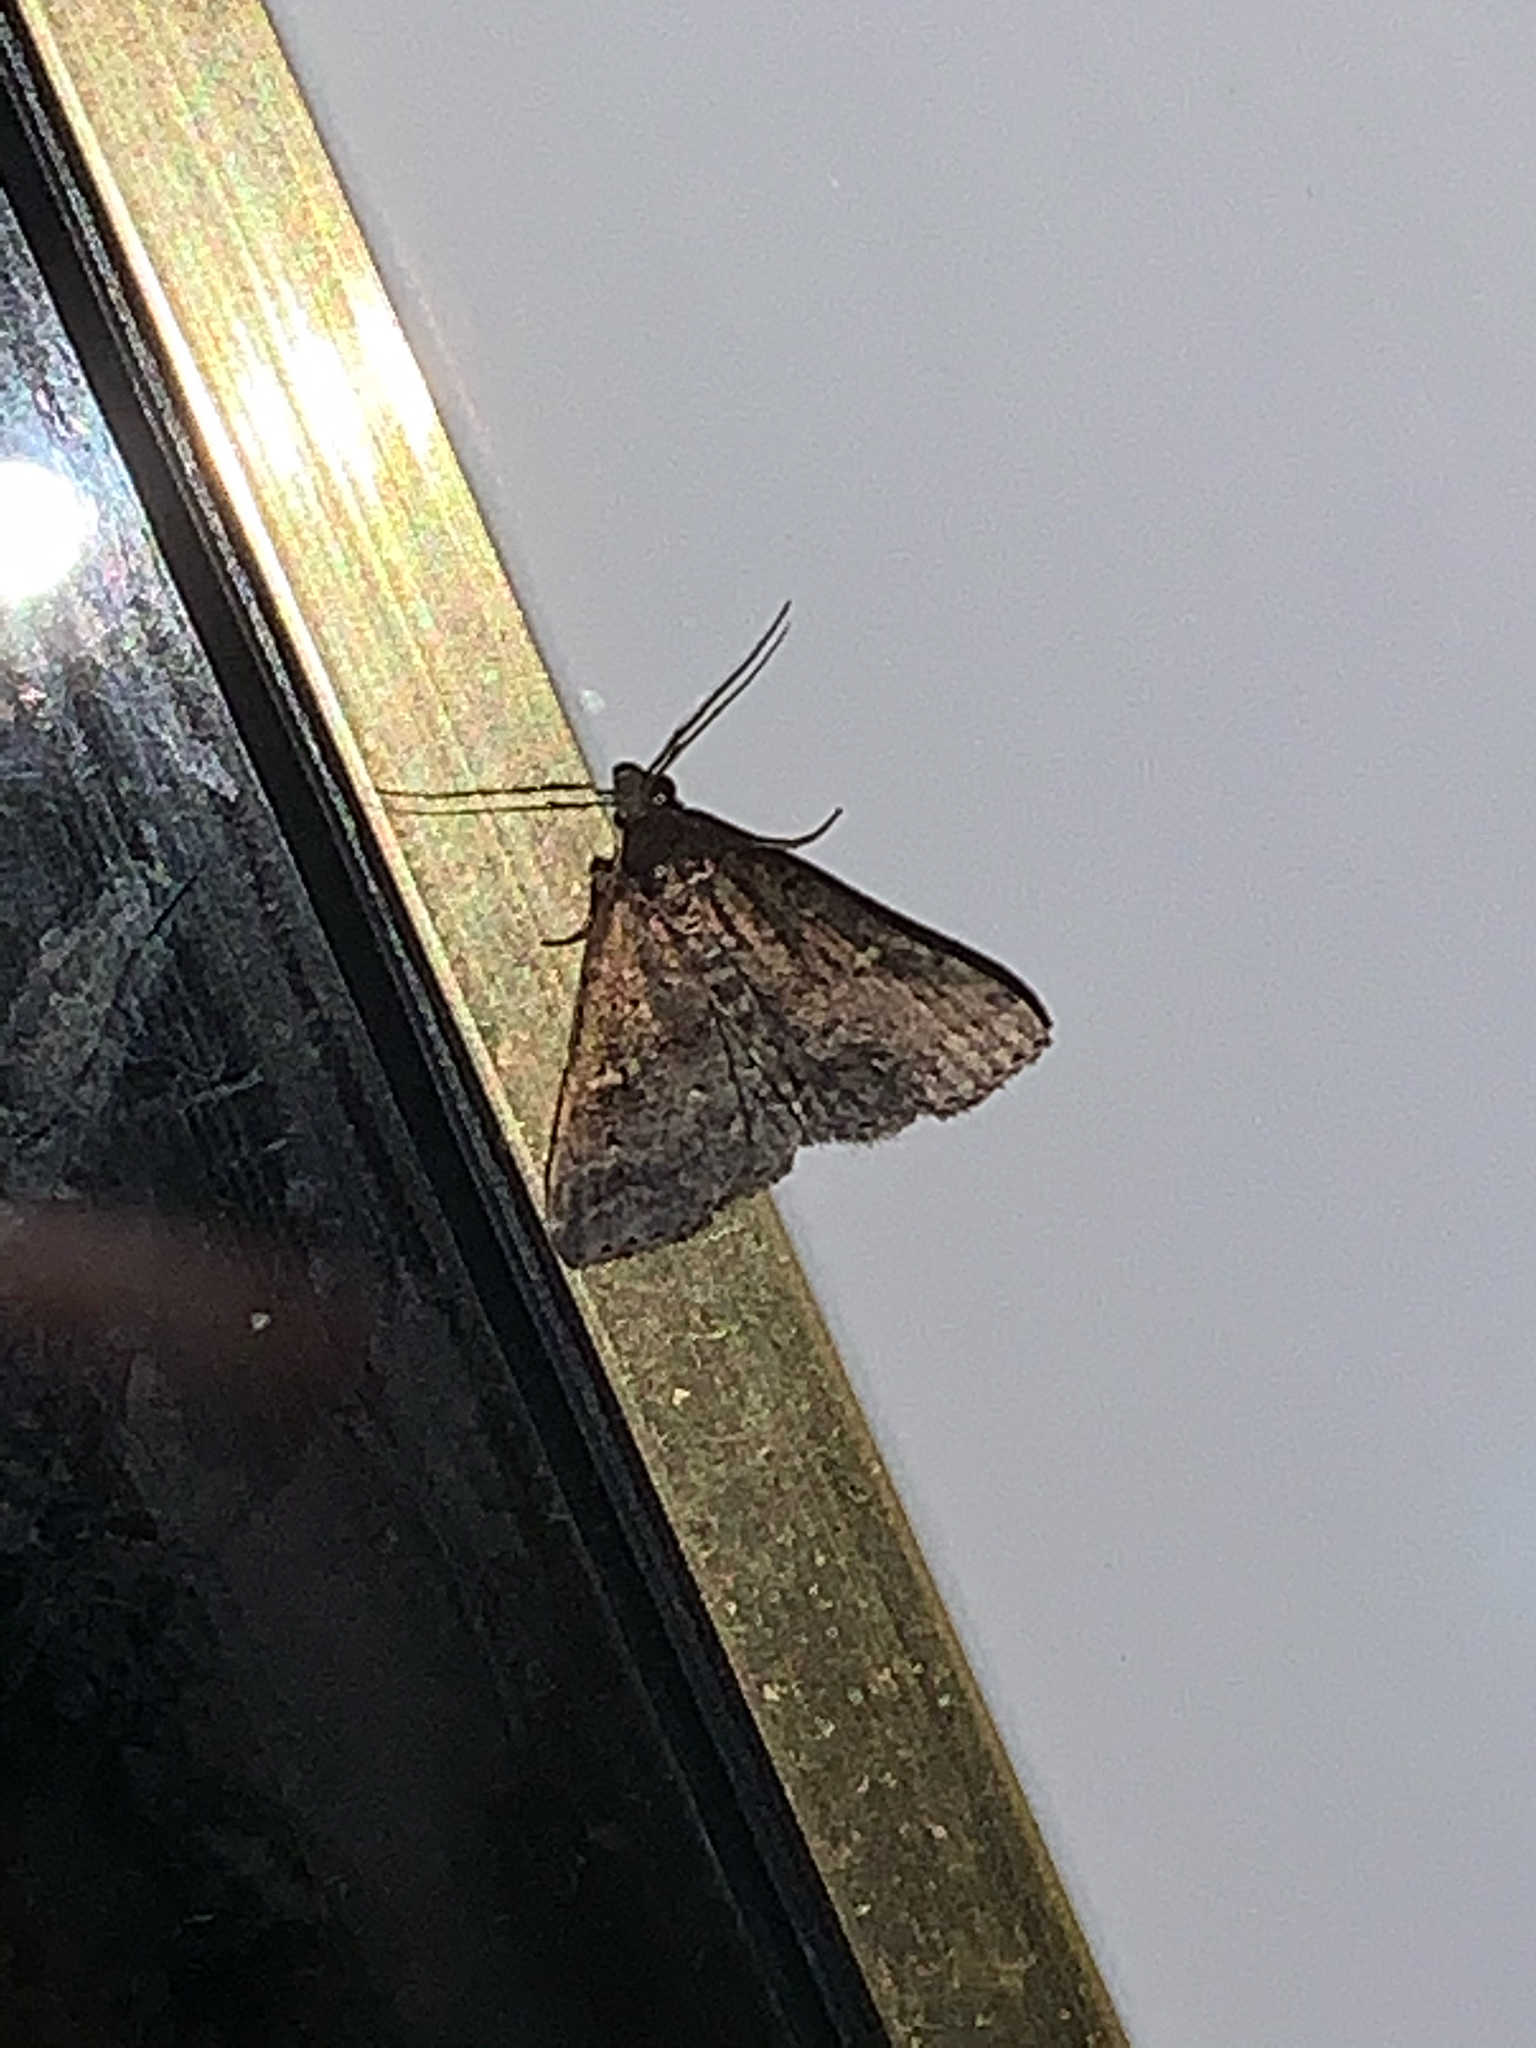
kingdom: Animalia
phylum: Arthropoda
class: Insecta
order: Lepidoptera
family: Erebidae
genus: Tetanolita
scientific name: Tetanolita mynesalis
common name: Smoky tetanolita moth
